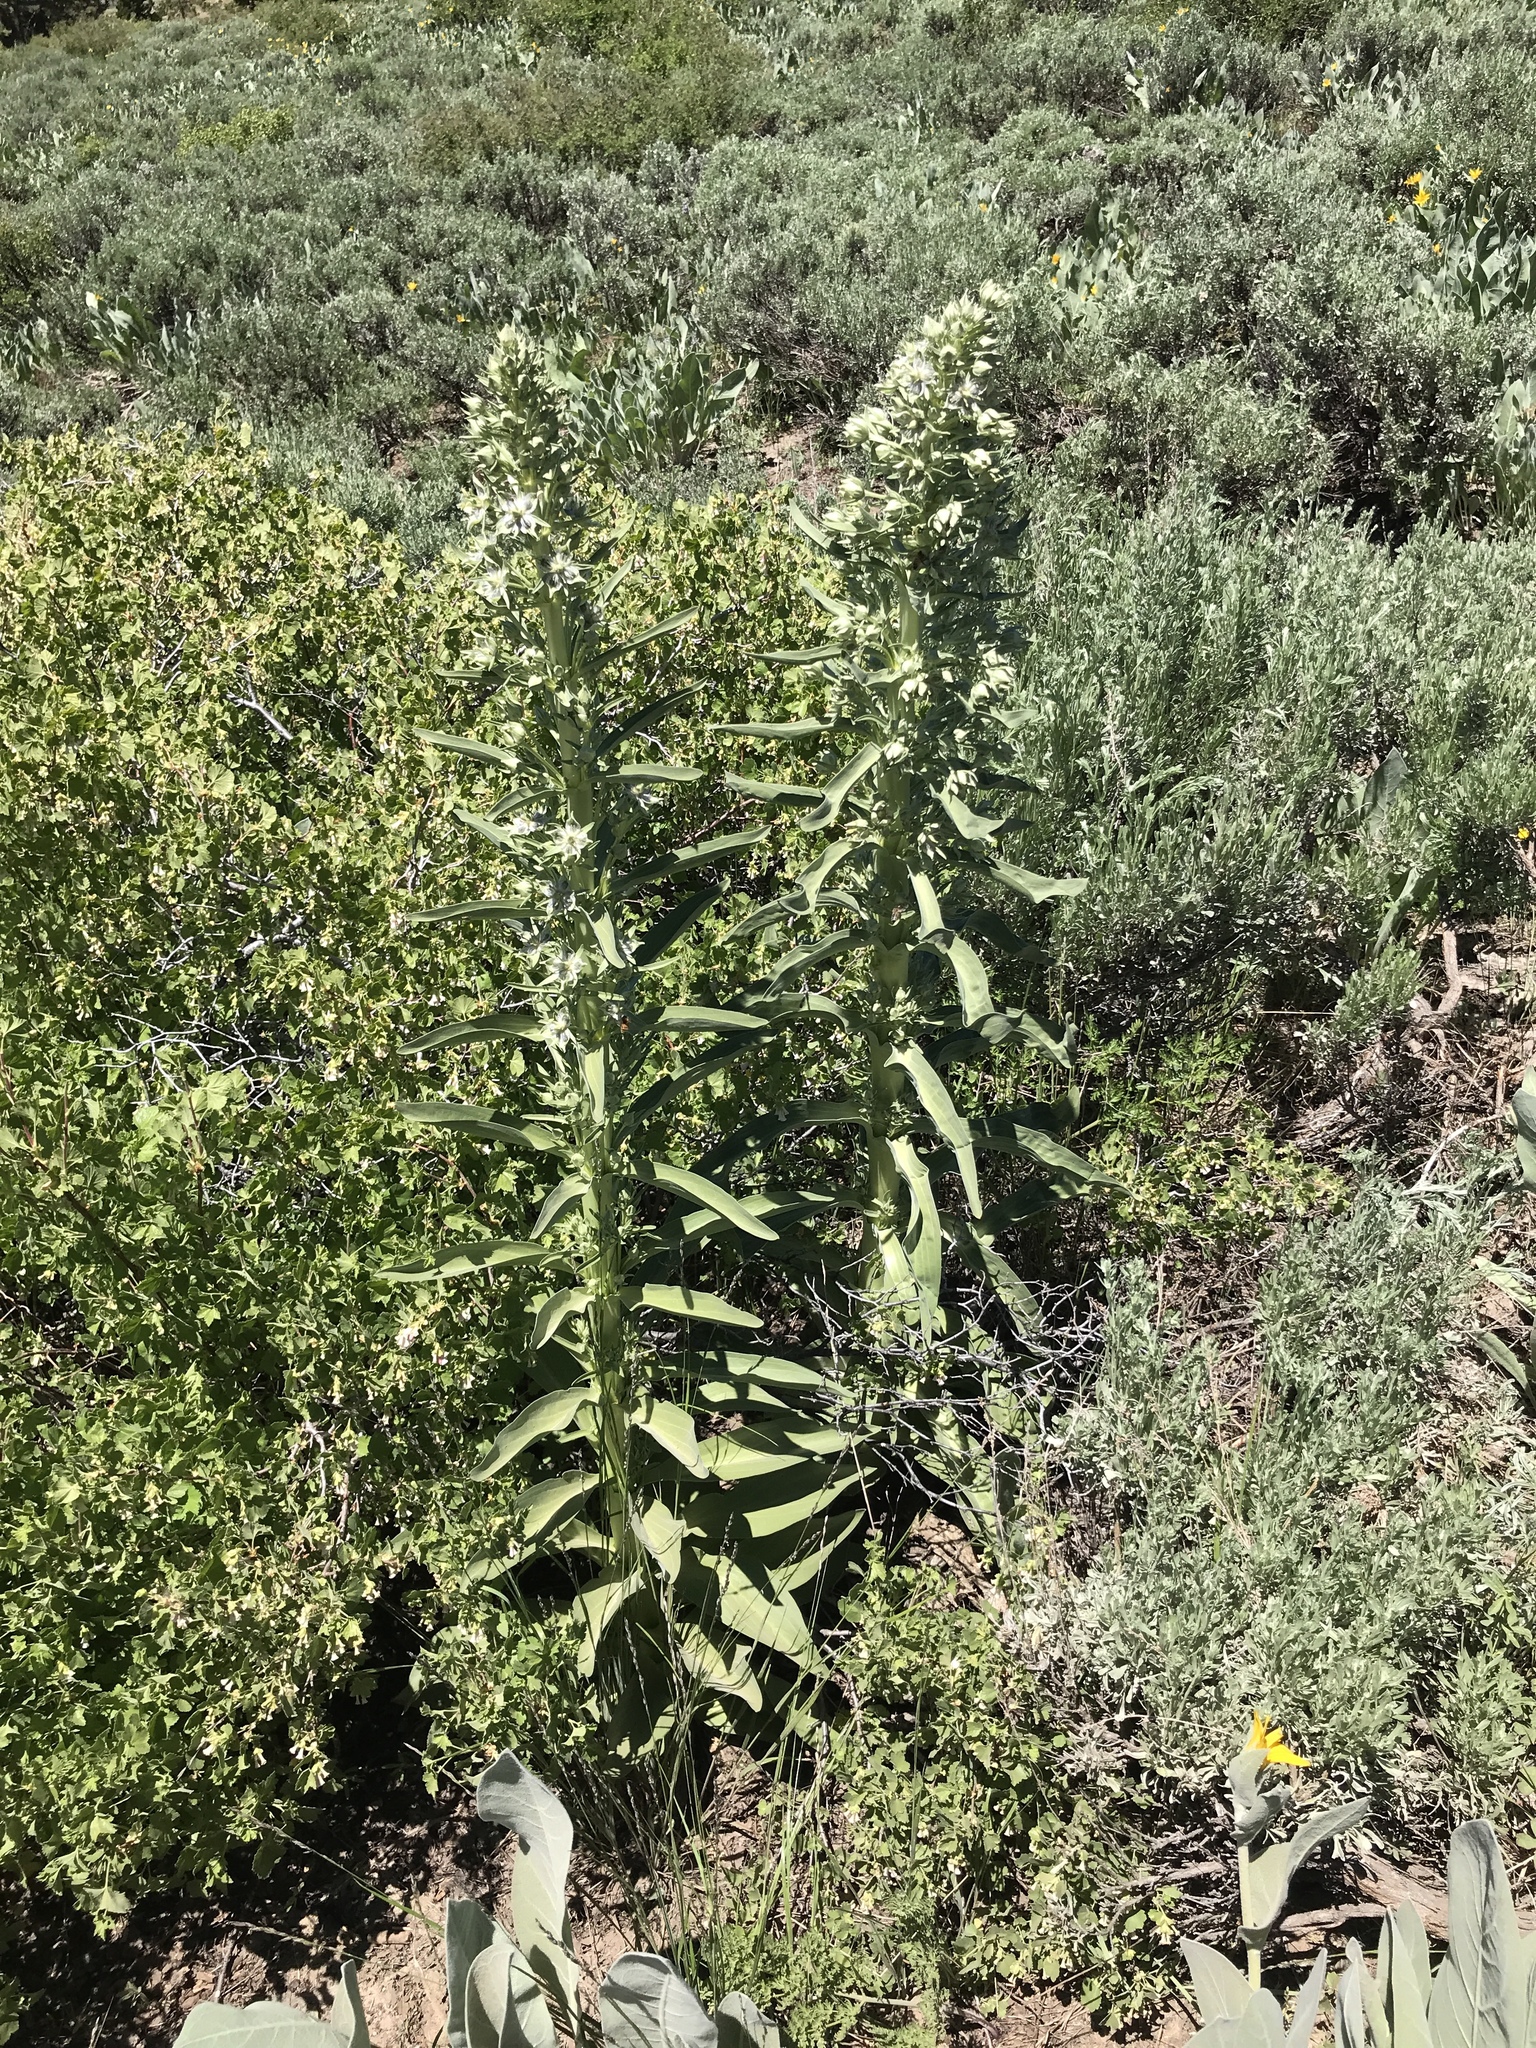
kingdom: Plantae
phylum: Tracheophyta
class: Magnoliopsida
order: Gentianales
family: Gentianaceae
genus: Frasera
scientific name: Frasera speciosa
